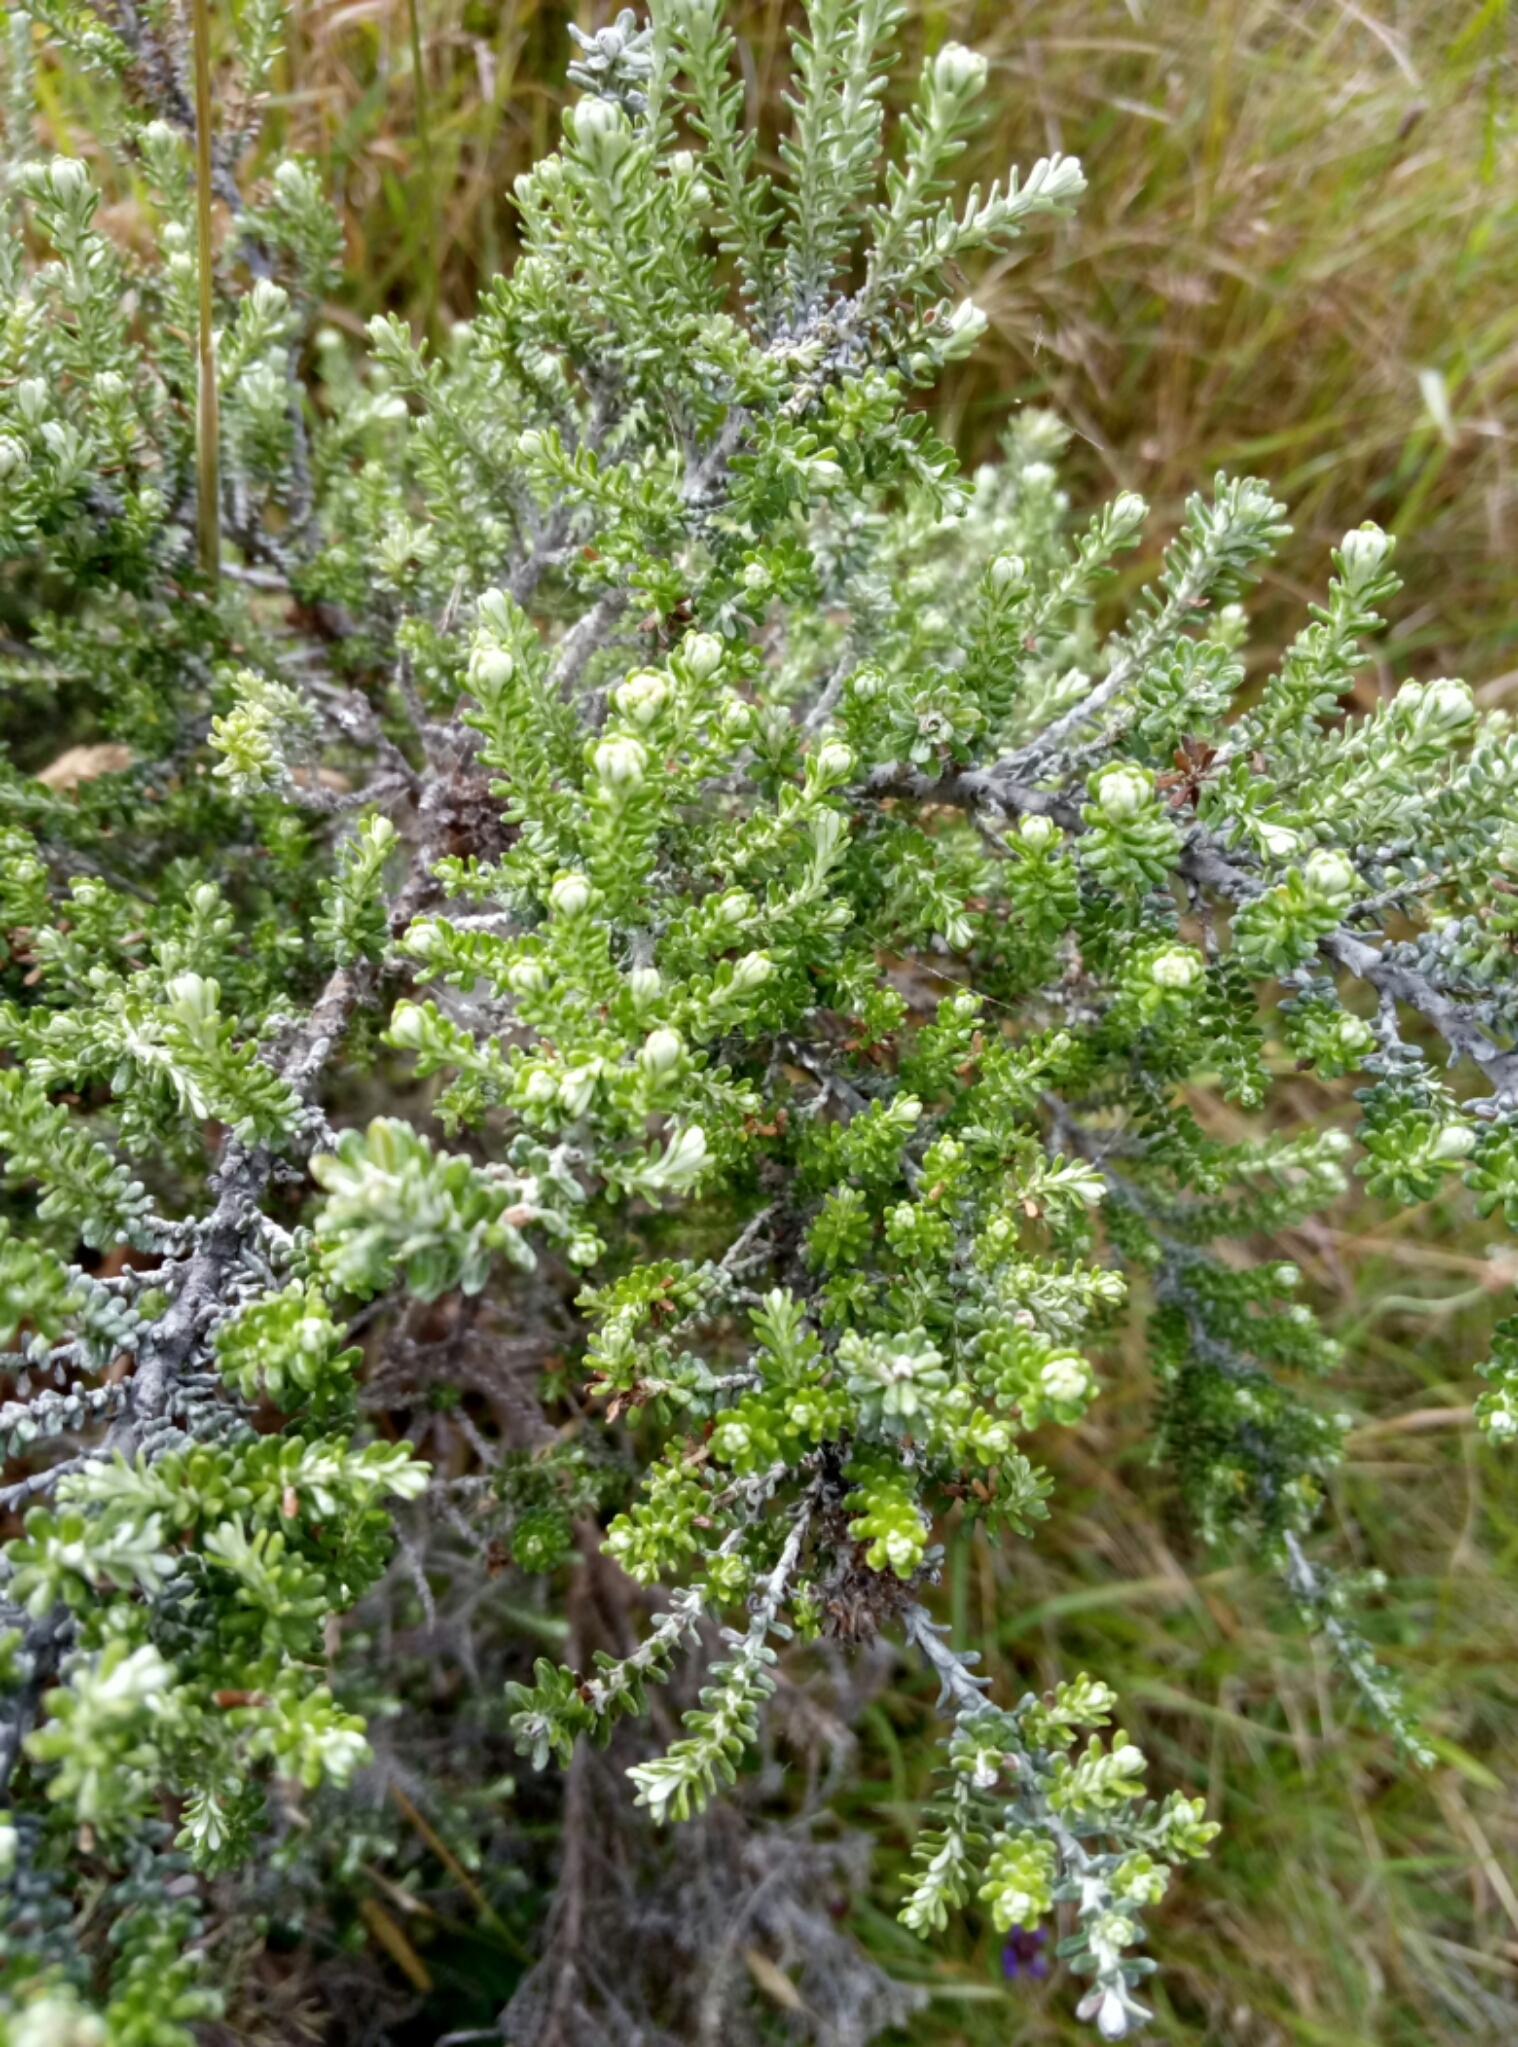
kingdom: Plantae
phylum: Tracheophyta
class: Magnoliopsida
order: Asterales
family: Asteraceae
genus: Ozothamnus
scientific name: Ozothamnus leptophyllus
